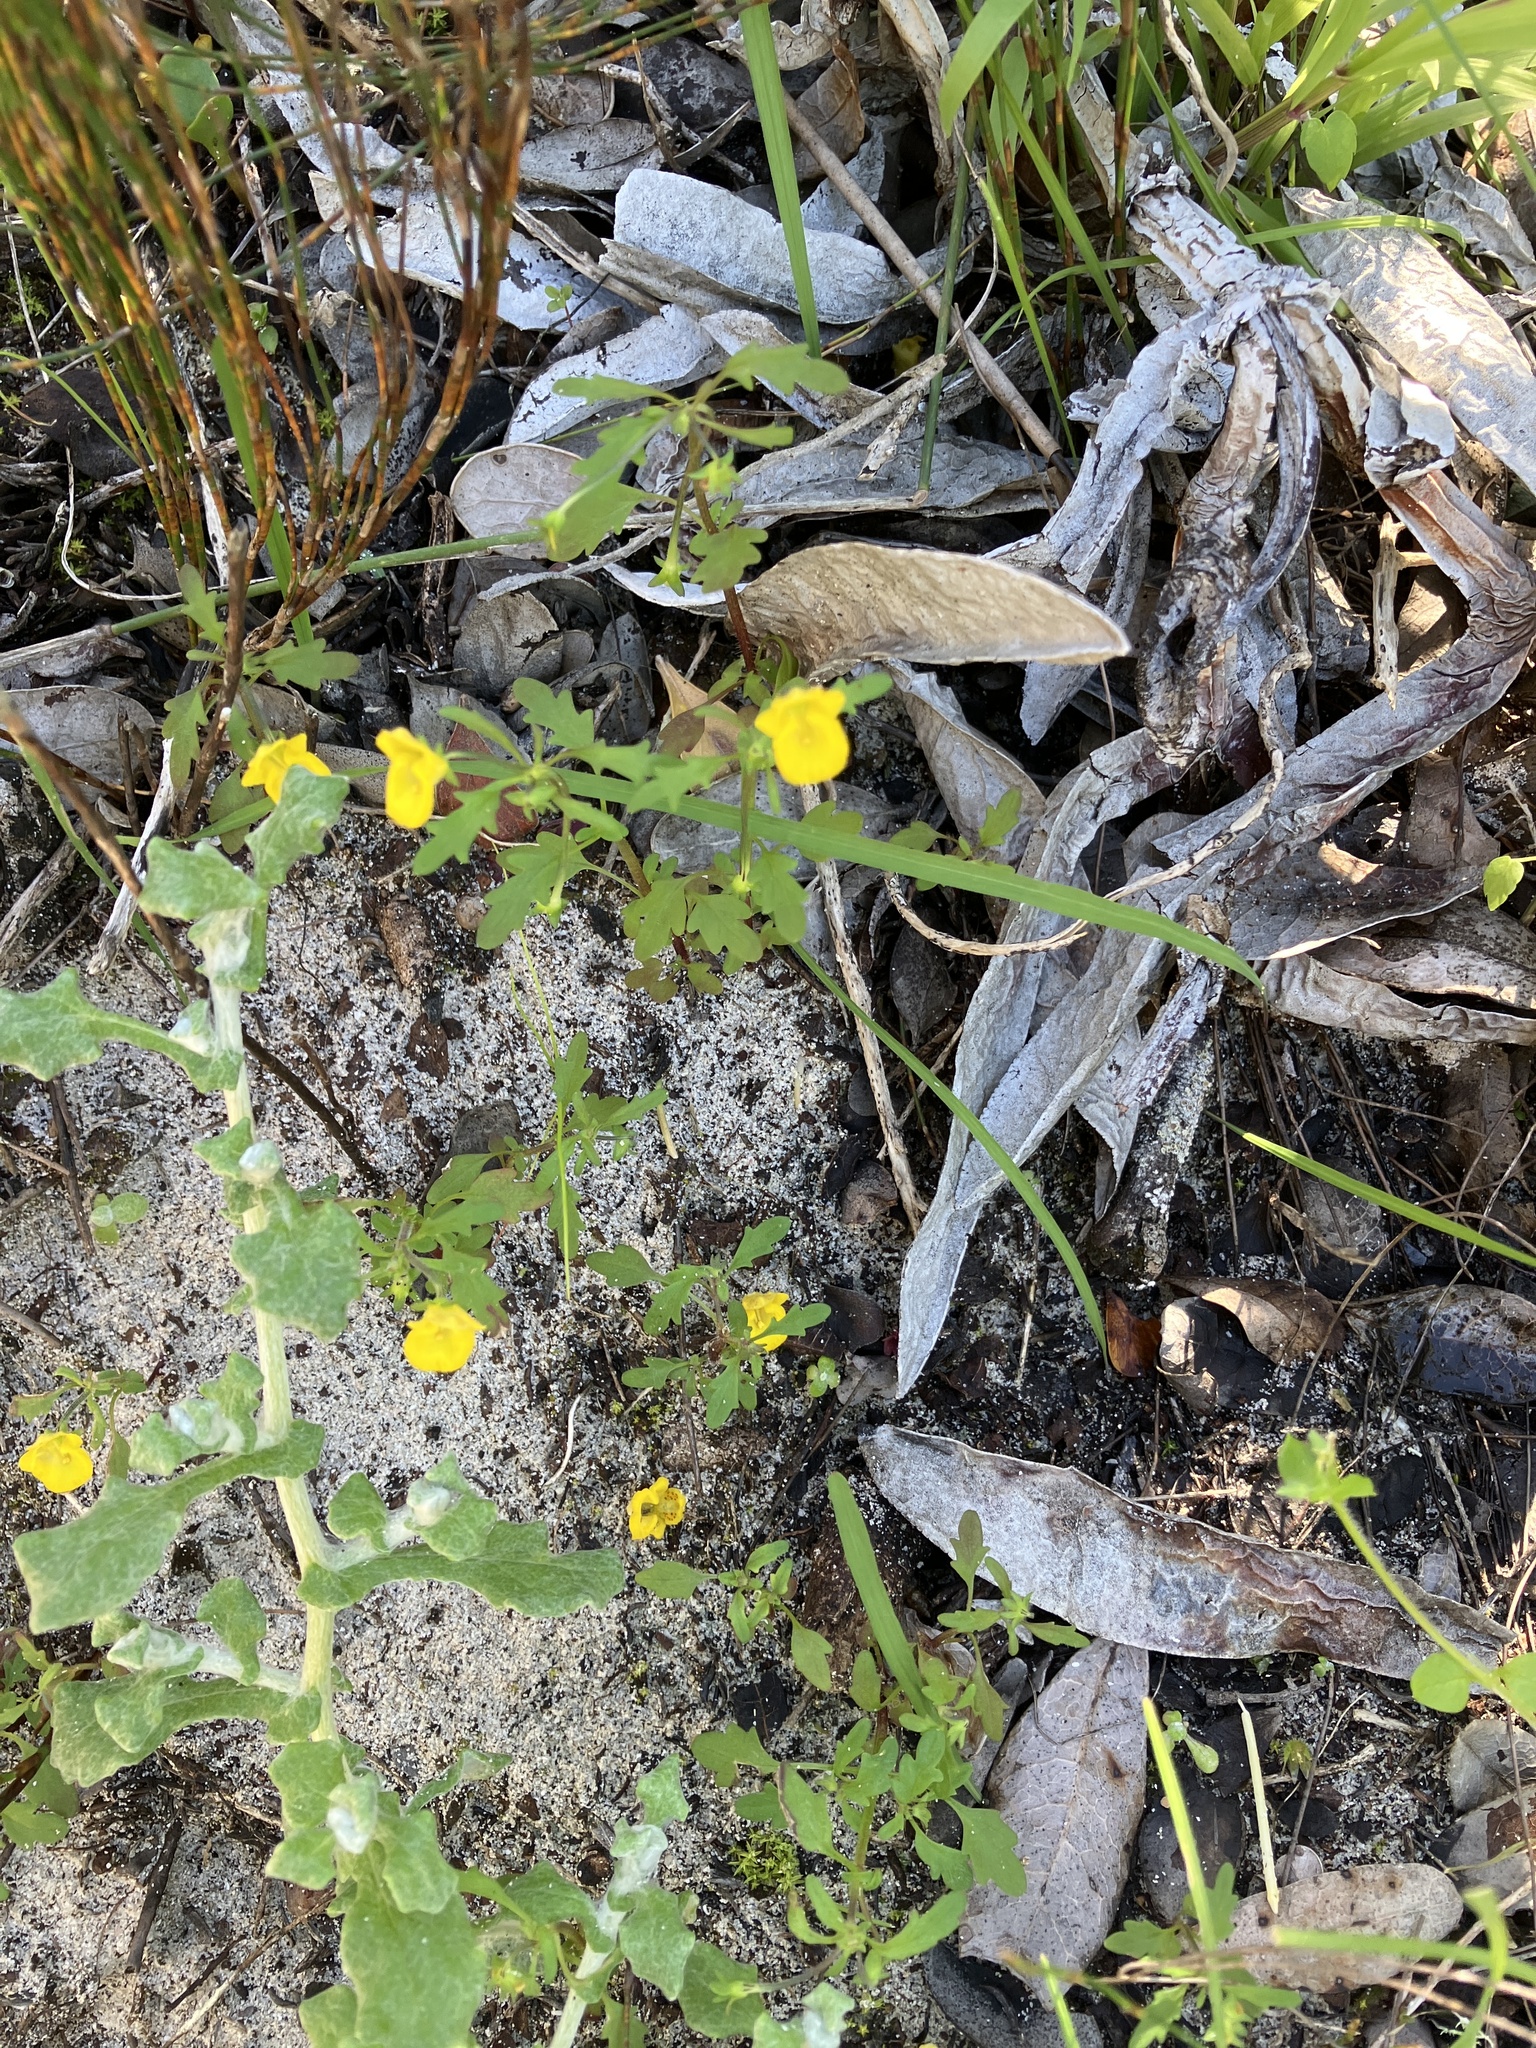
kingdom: Plantae
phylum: Tracheophyta
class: Magnoliopsida
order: Lamiales
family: Scrophulariaceae
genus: Hemimeris
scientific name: Hemimeris racemosa
